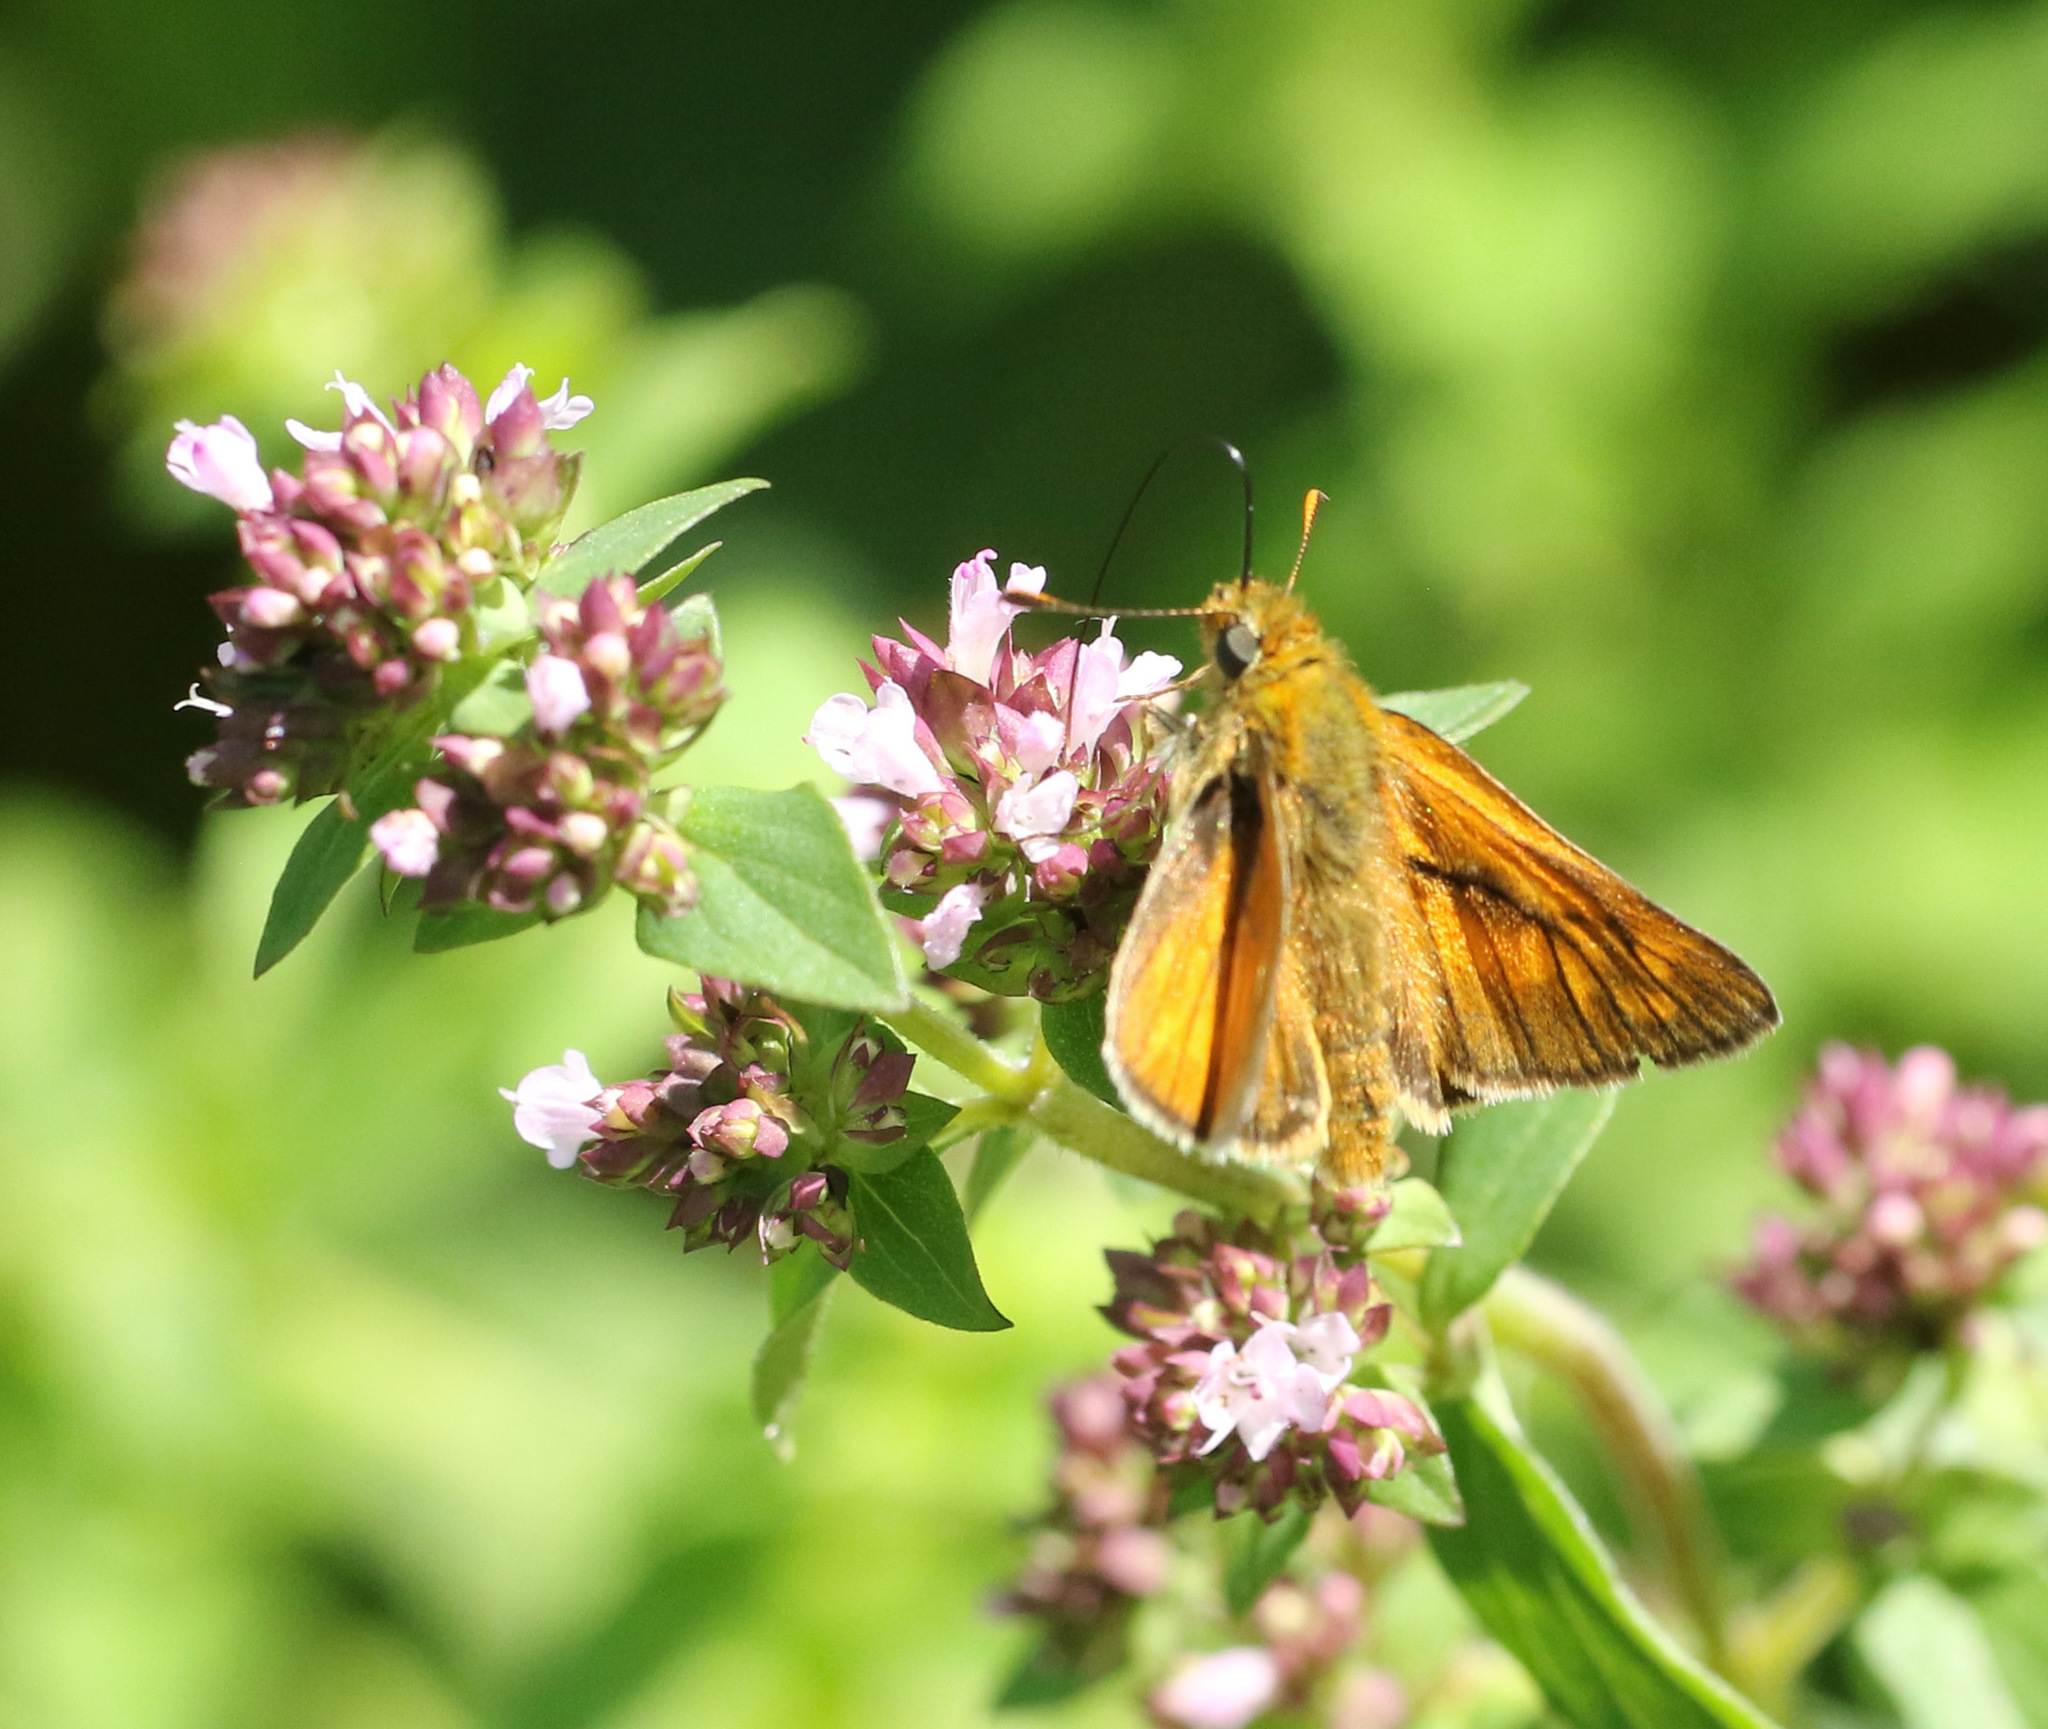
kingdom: Animalia
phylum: Arthropoda
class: Insecta
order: Lepidoptera
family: Hesperiidae
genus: Ochlodes
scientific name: Ochlodes venata
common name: Large skipper
